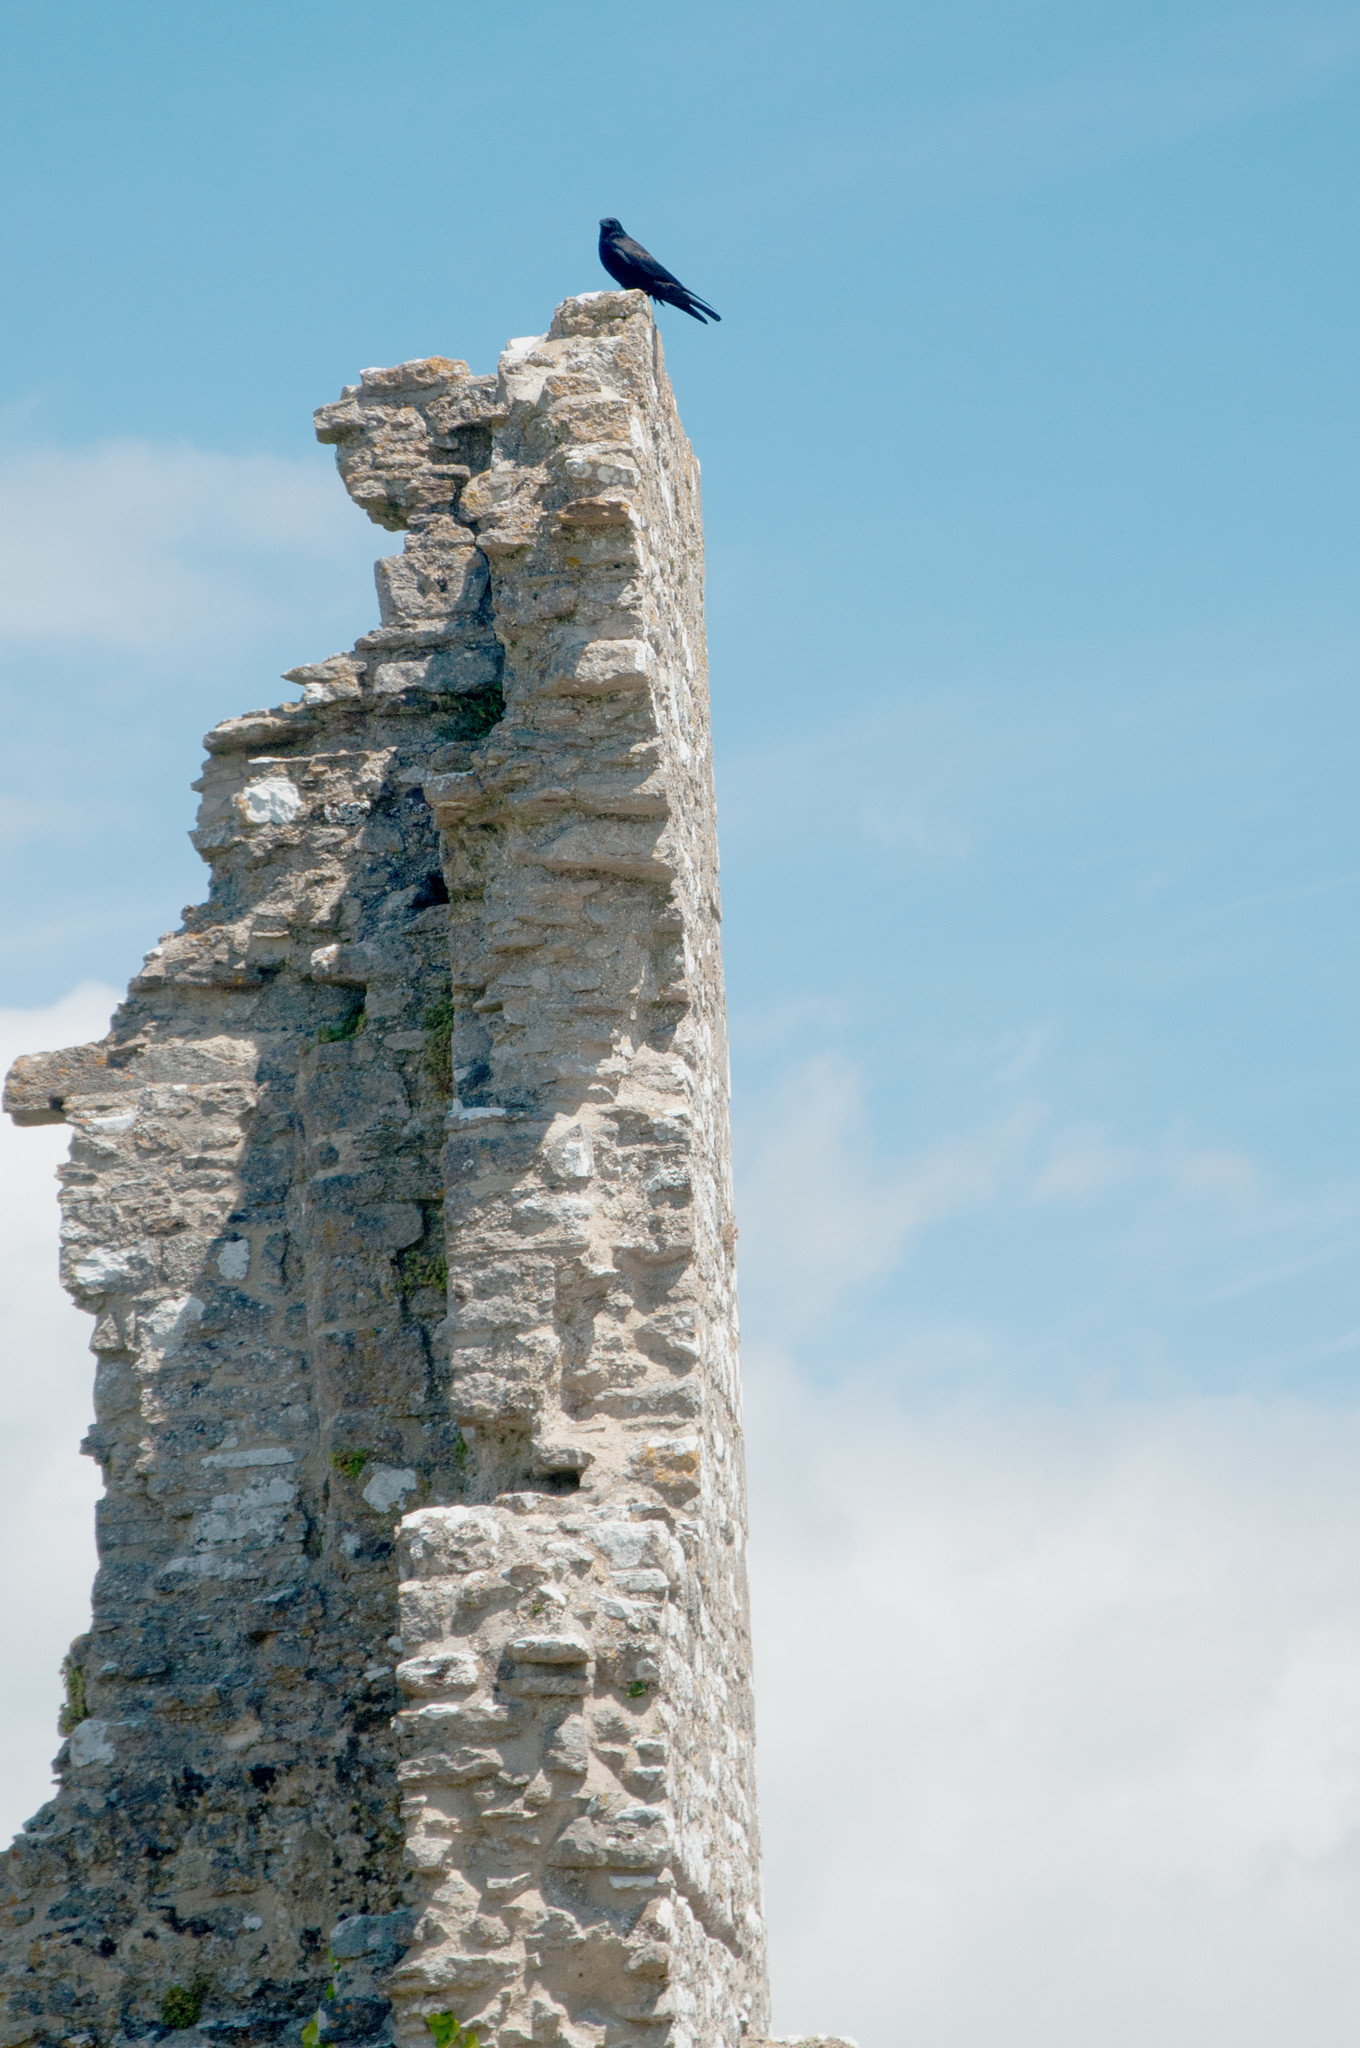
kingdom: Animalia
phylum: Chordata
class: Aves
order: Passeriformes
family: Corvidae
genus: Corvus
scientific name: Corvus corax
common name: Common raven
